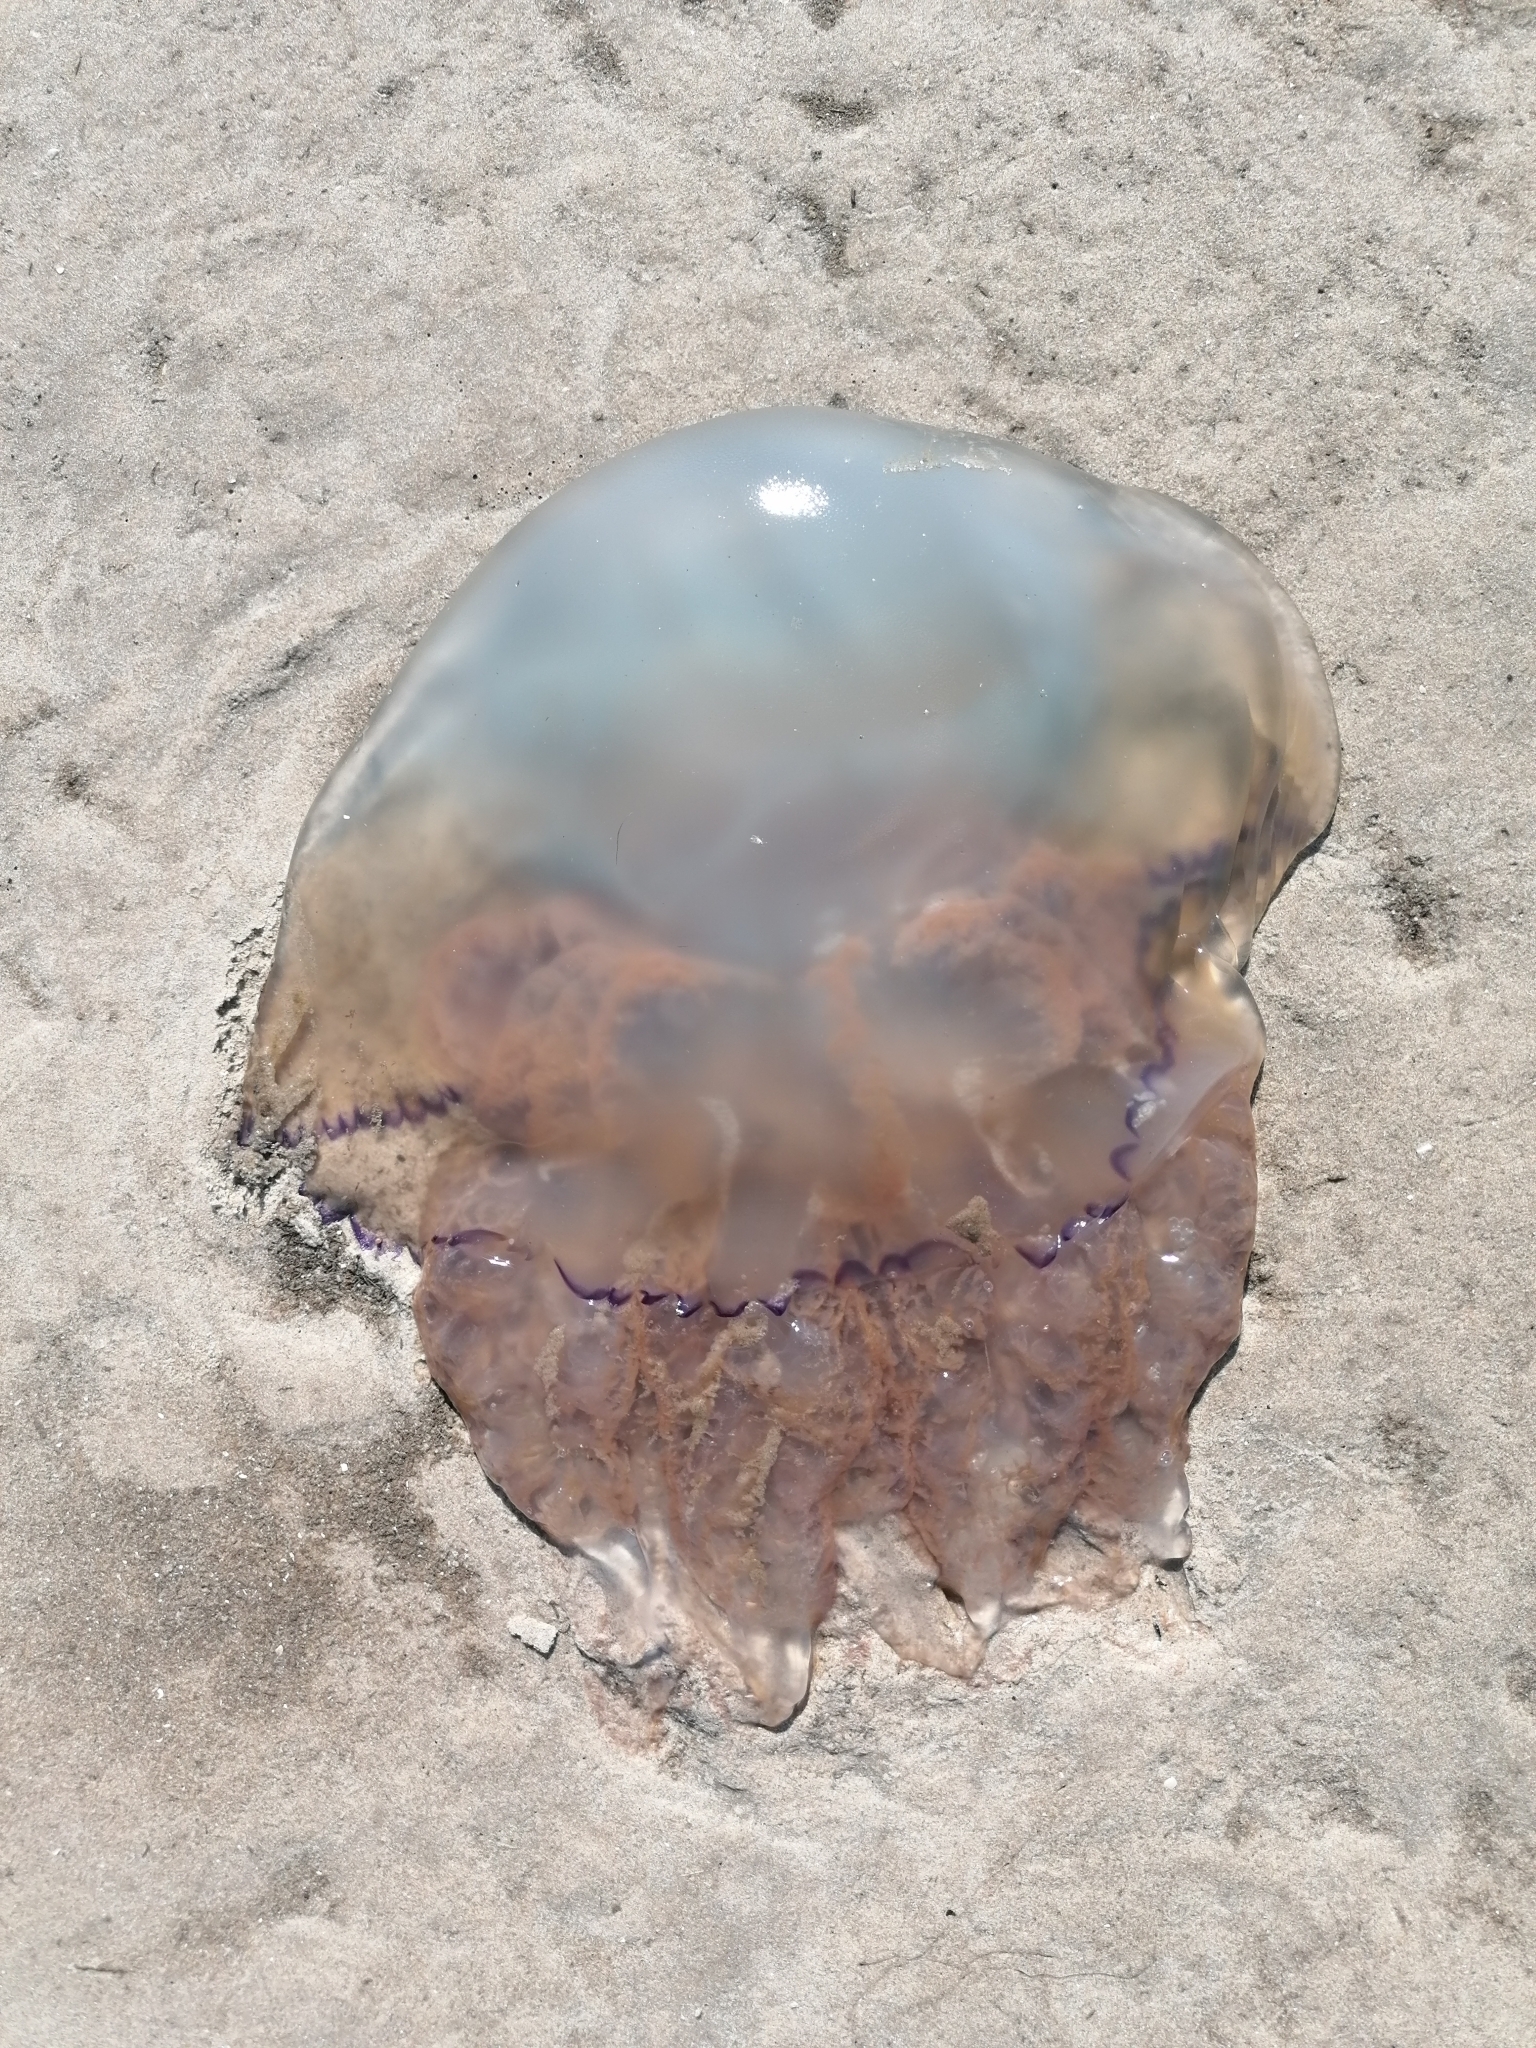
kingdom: Animalia
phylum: Cnidaria
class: Scyphozoa
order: Rhizostomeae
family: Rhizostomatidae
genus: Rhizostoma
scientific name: Rhizostoma octopus
